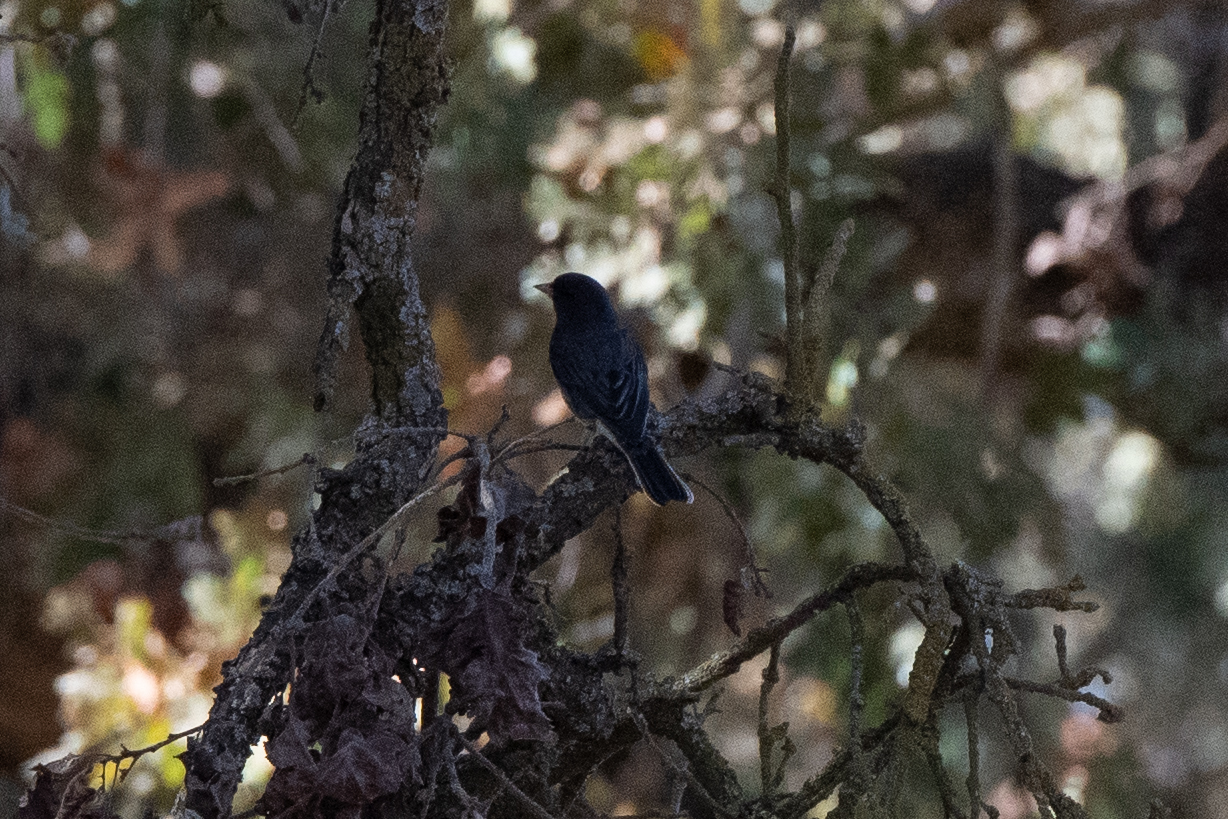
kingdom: Animalia
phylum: Chordata
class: Aves
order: Passeriformes
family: Passerellidae
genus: Junco
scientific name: Junco hyemalis
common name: Dark-eyed junco
